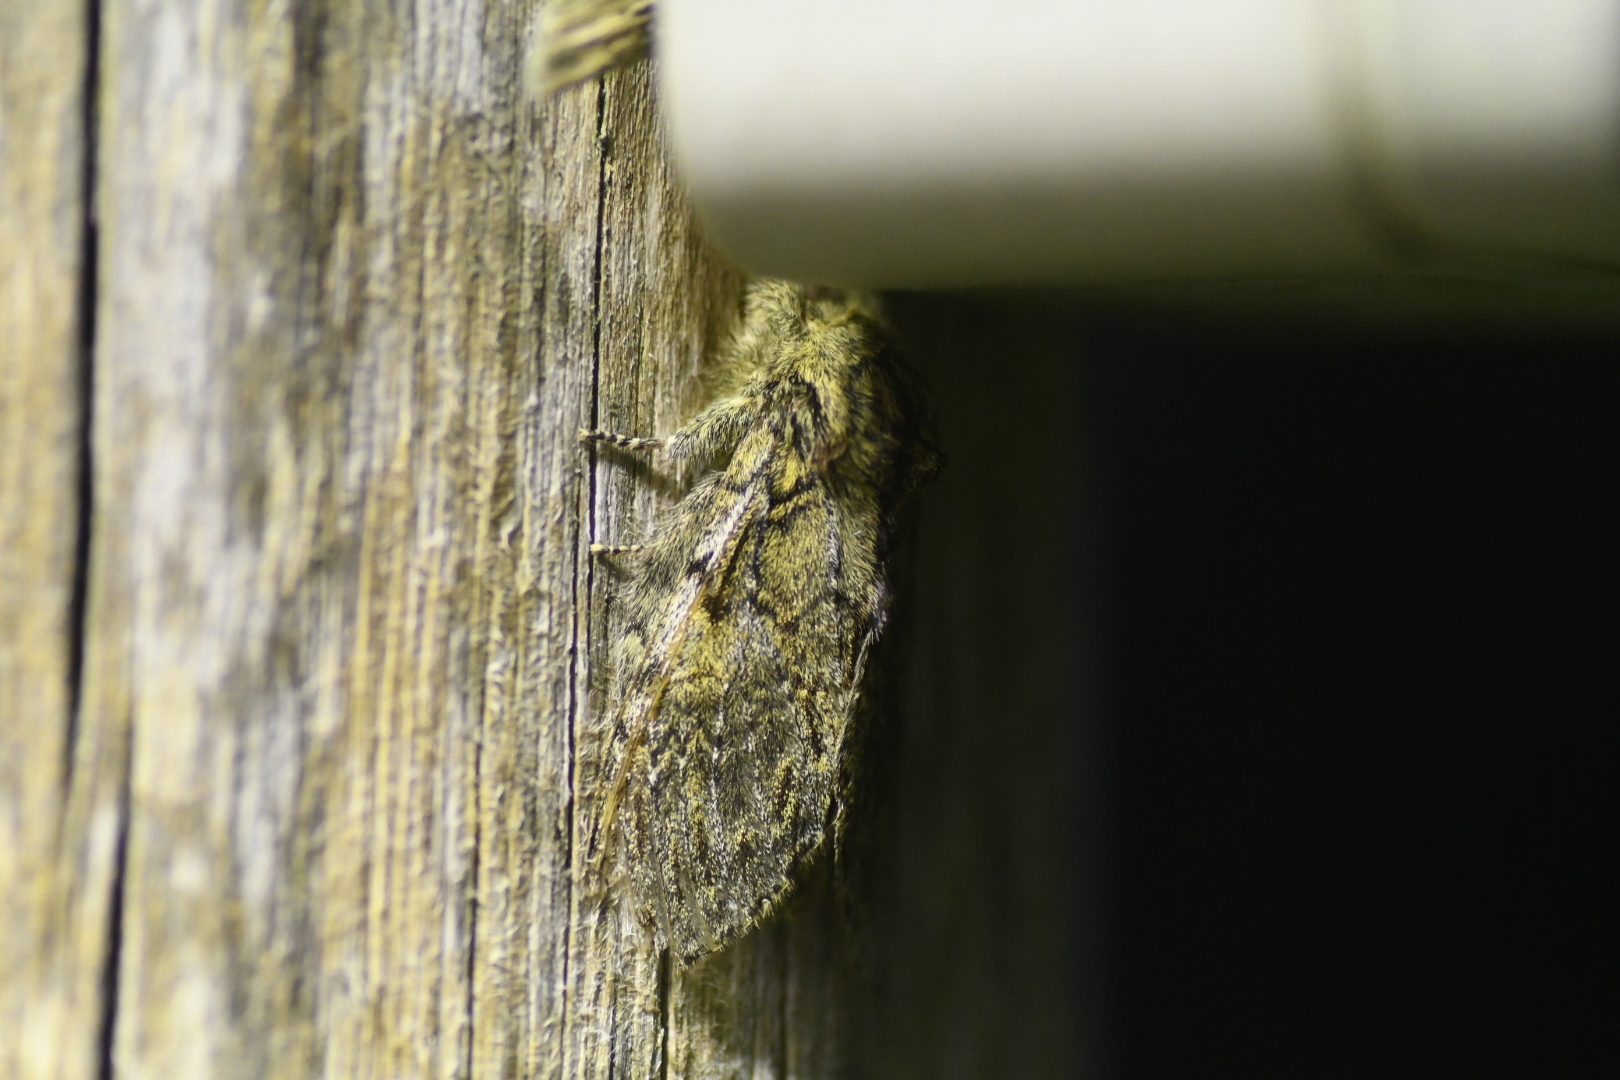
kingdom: Animalia
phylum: Arthropoda
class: Insecta
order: Lepidoptera
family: Notodontidae
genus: Peridea
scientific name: Peridea anceps
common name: Great prominent
